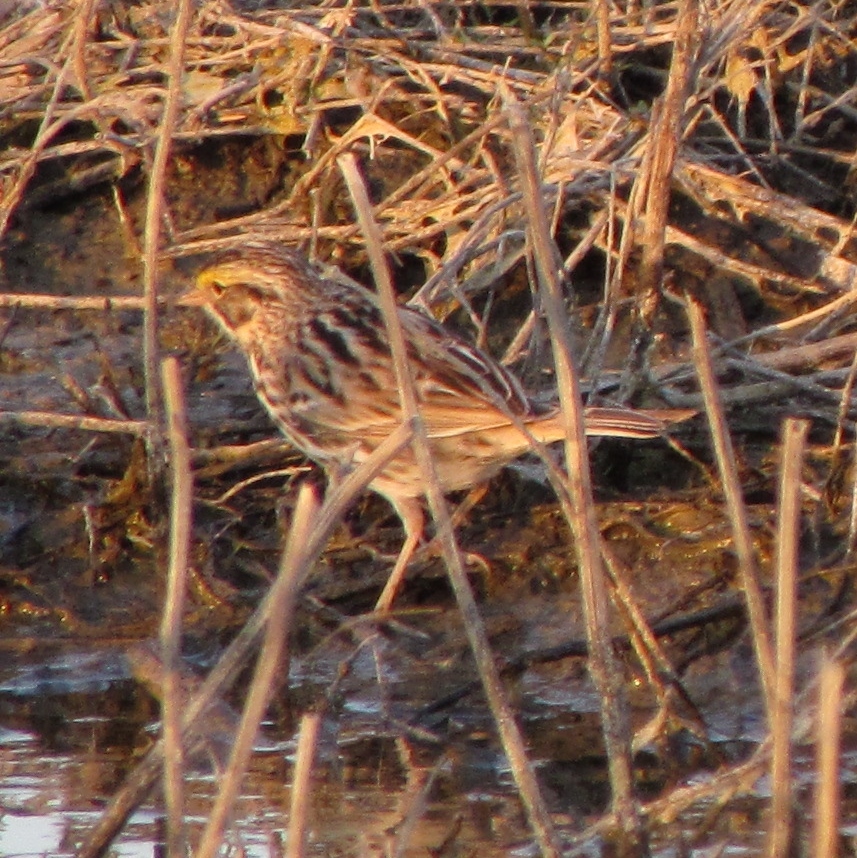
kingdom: Animalia
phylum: Chordata
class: Aves
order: Passeriformes
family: Passerellidae
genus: Passerculus
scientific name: Passerculus sandwichensis
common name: Savannah sparrow
